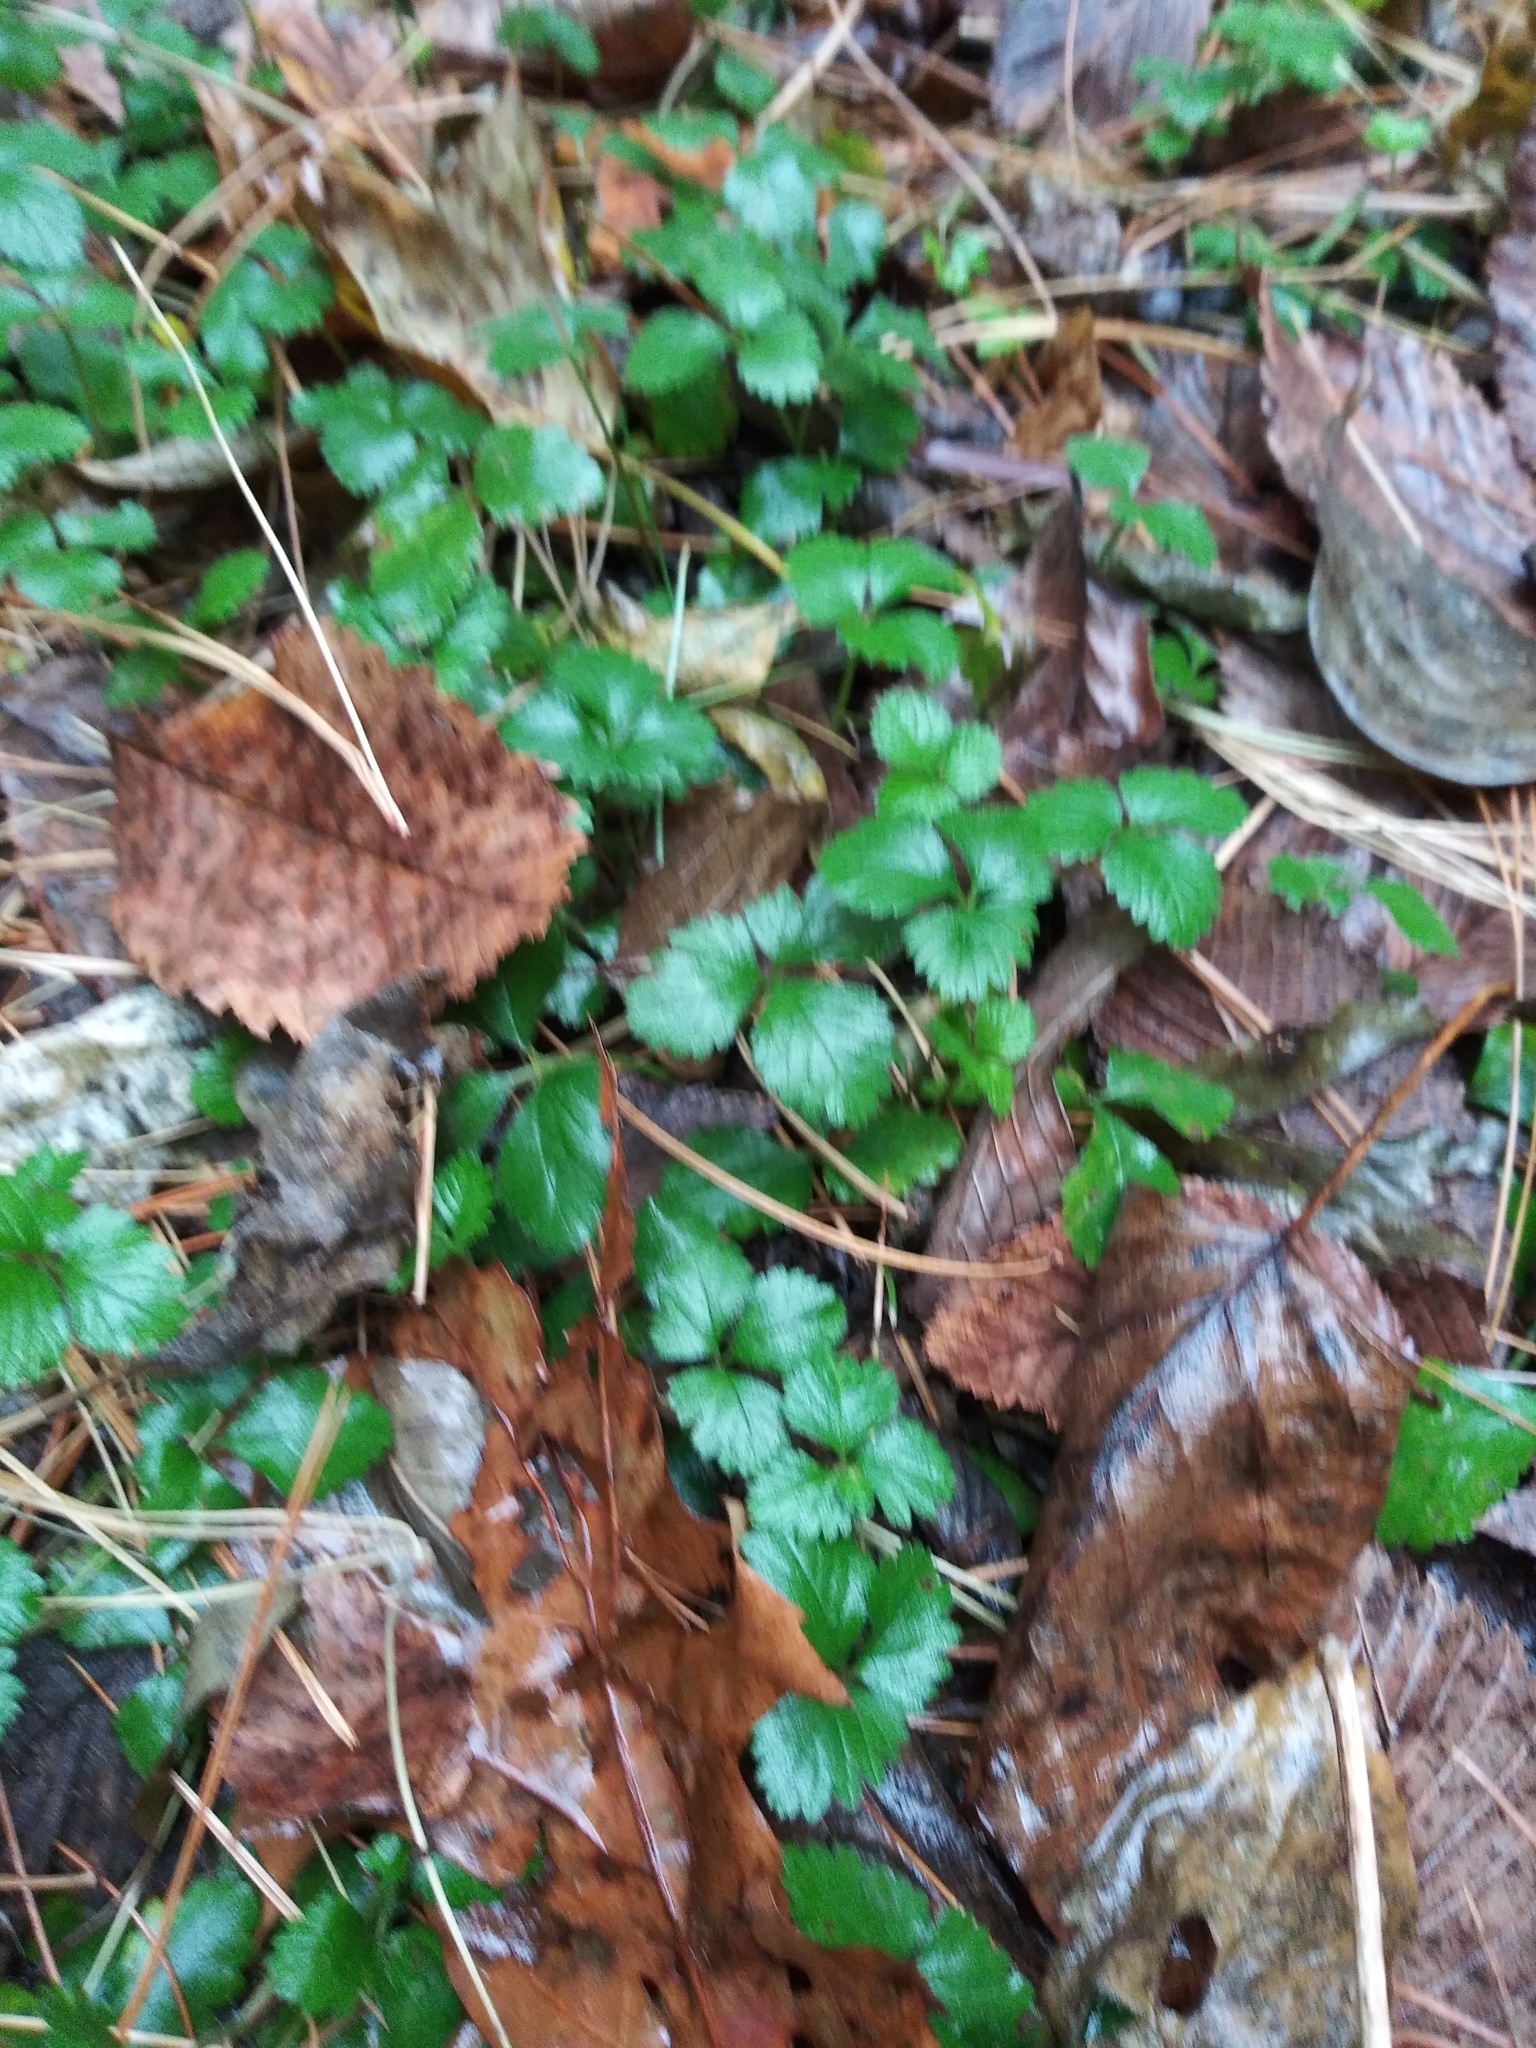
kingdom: Plantae
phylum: Tracheophyta
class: Magnoliopsida
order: Rosales
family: Rosaceae
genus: Potentilla
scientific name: Potentilla indica
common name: Yellow-flowered strawberry
